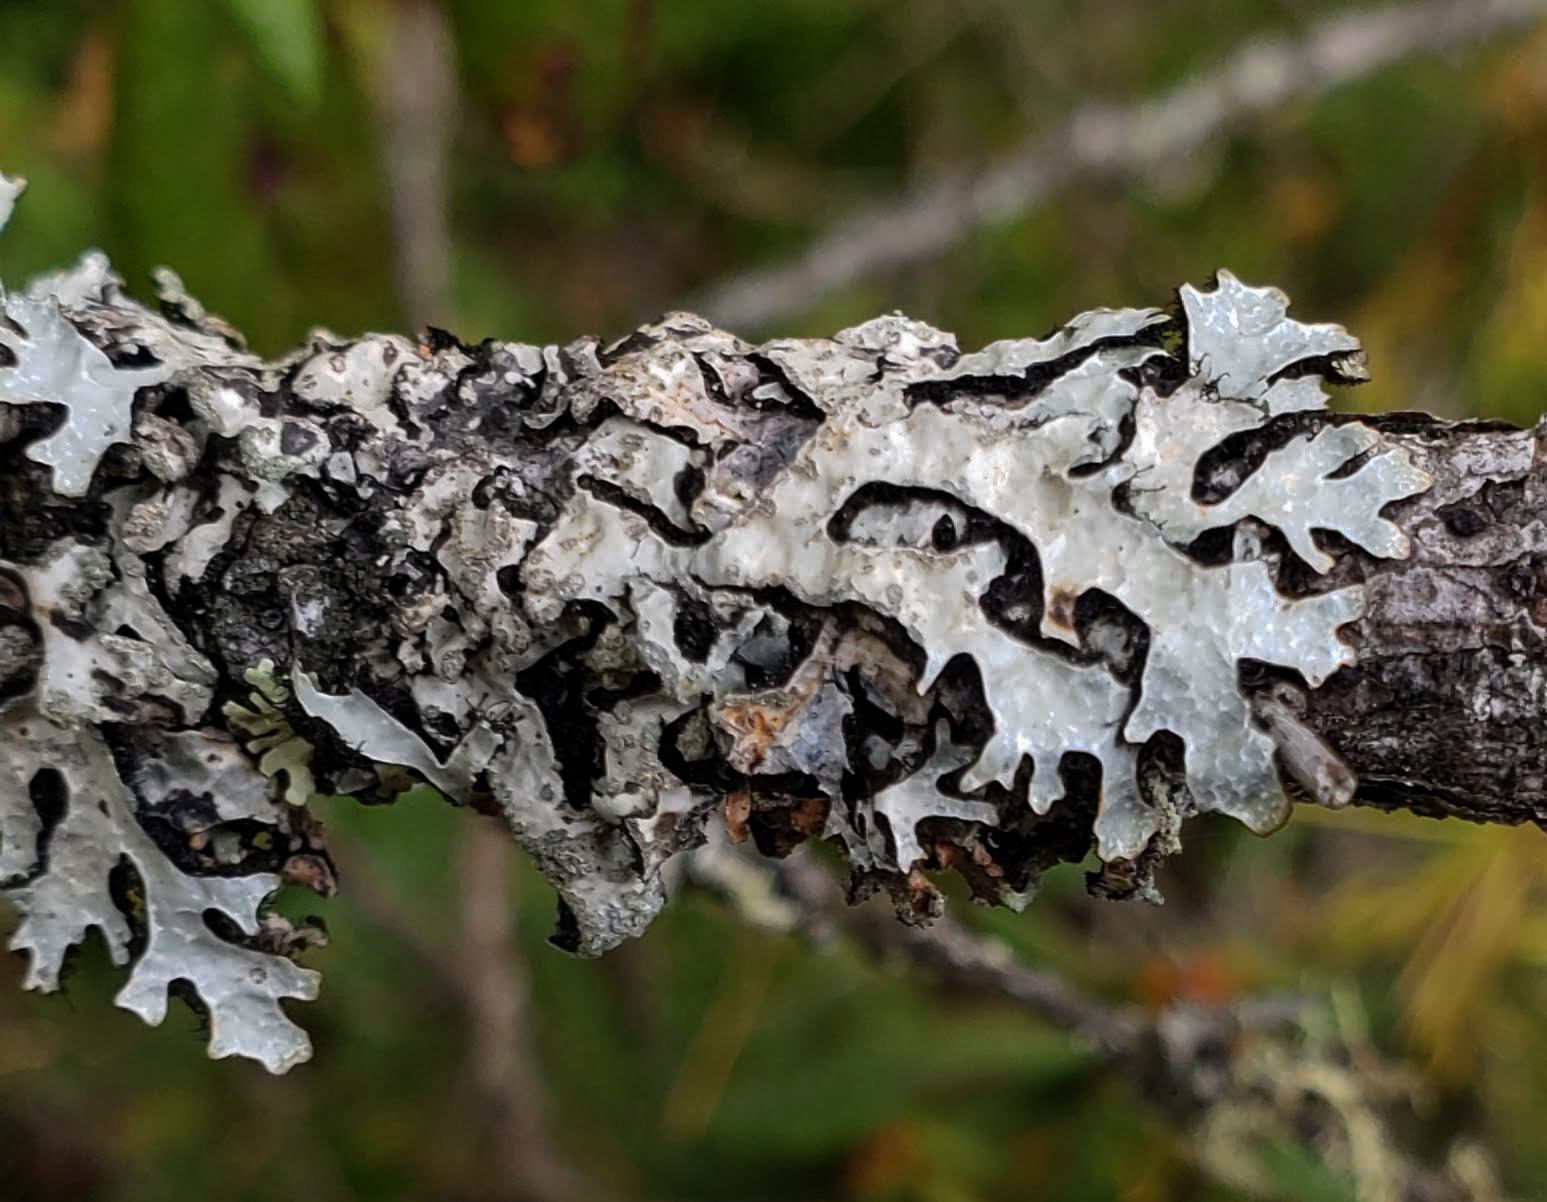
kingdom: Fungi
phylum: Ascomycota
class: Lecanoromycetes
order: Lecanorales
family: Parmeliaceae
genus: Parmelia
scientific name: Parmelia sulcata
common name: Netted shield lichen
